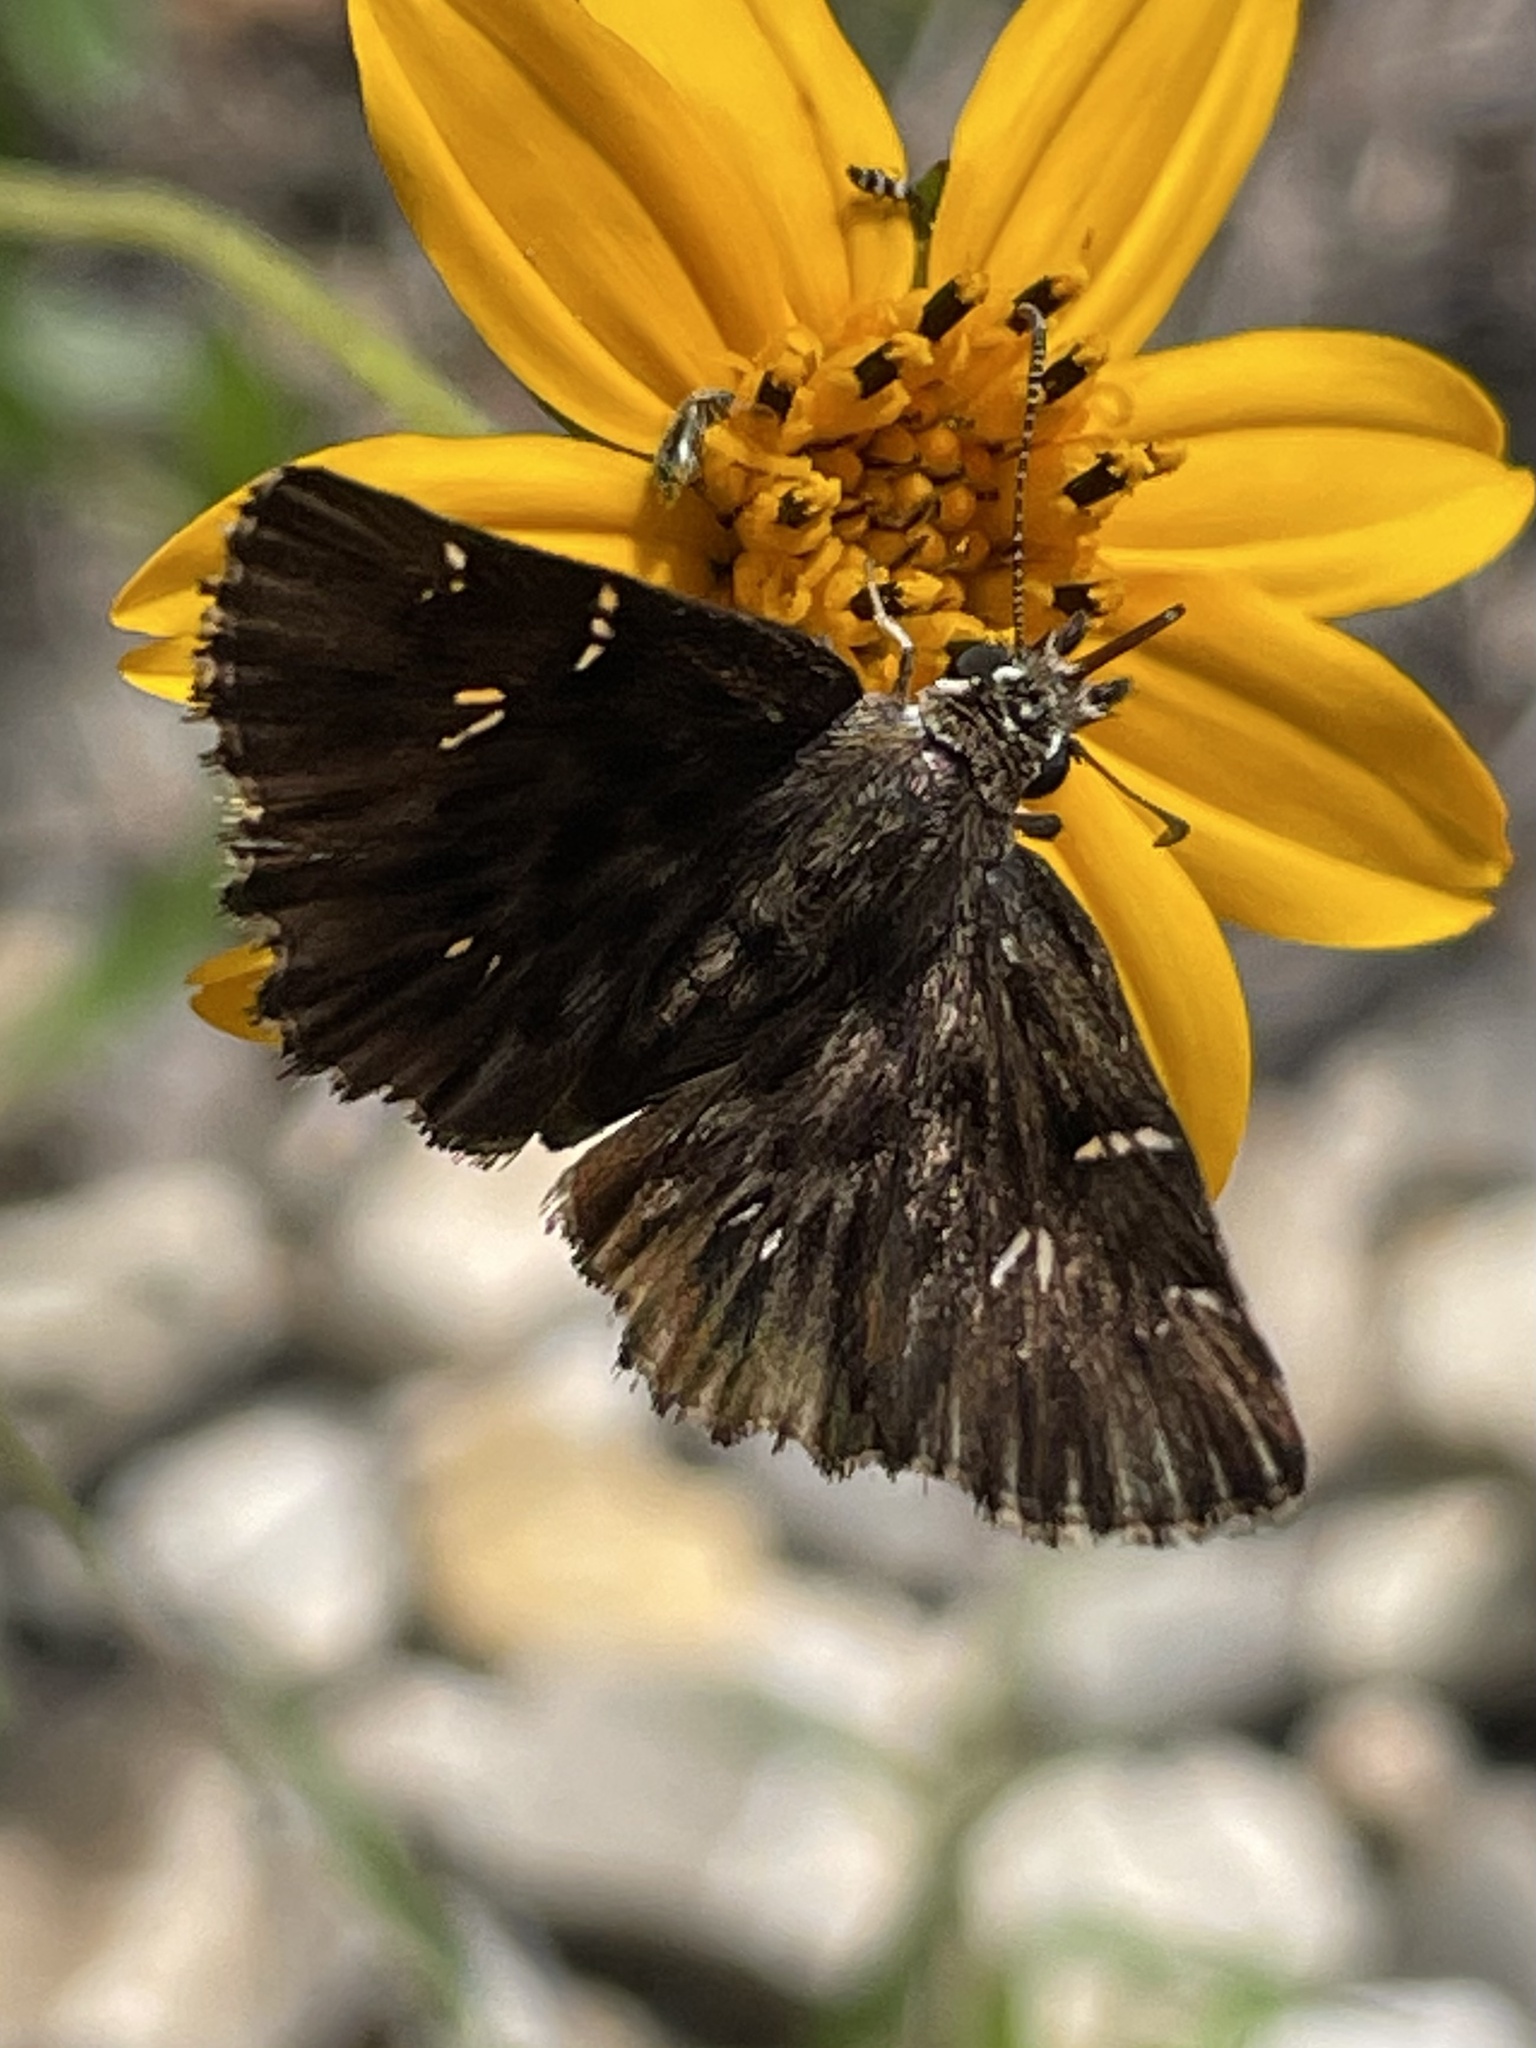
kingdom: Animalia
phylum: Arthropoda
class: Insecta
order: Lepidoptera
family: Hesperiidae
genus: Celotes
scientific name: Celotes nessus
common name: Common streaky-skipper
